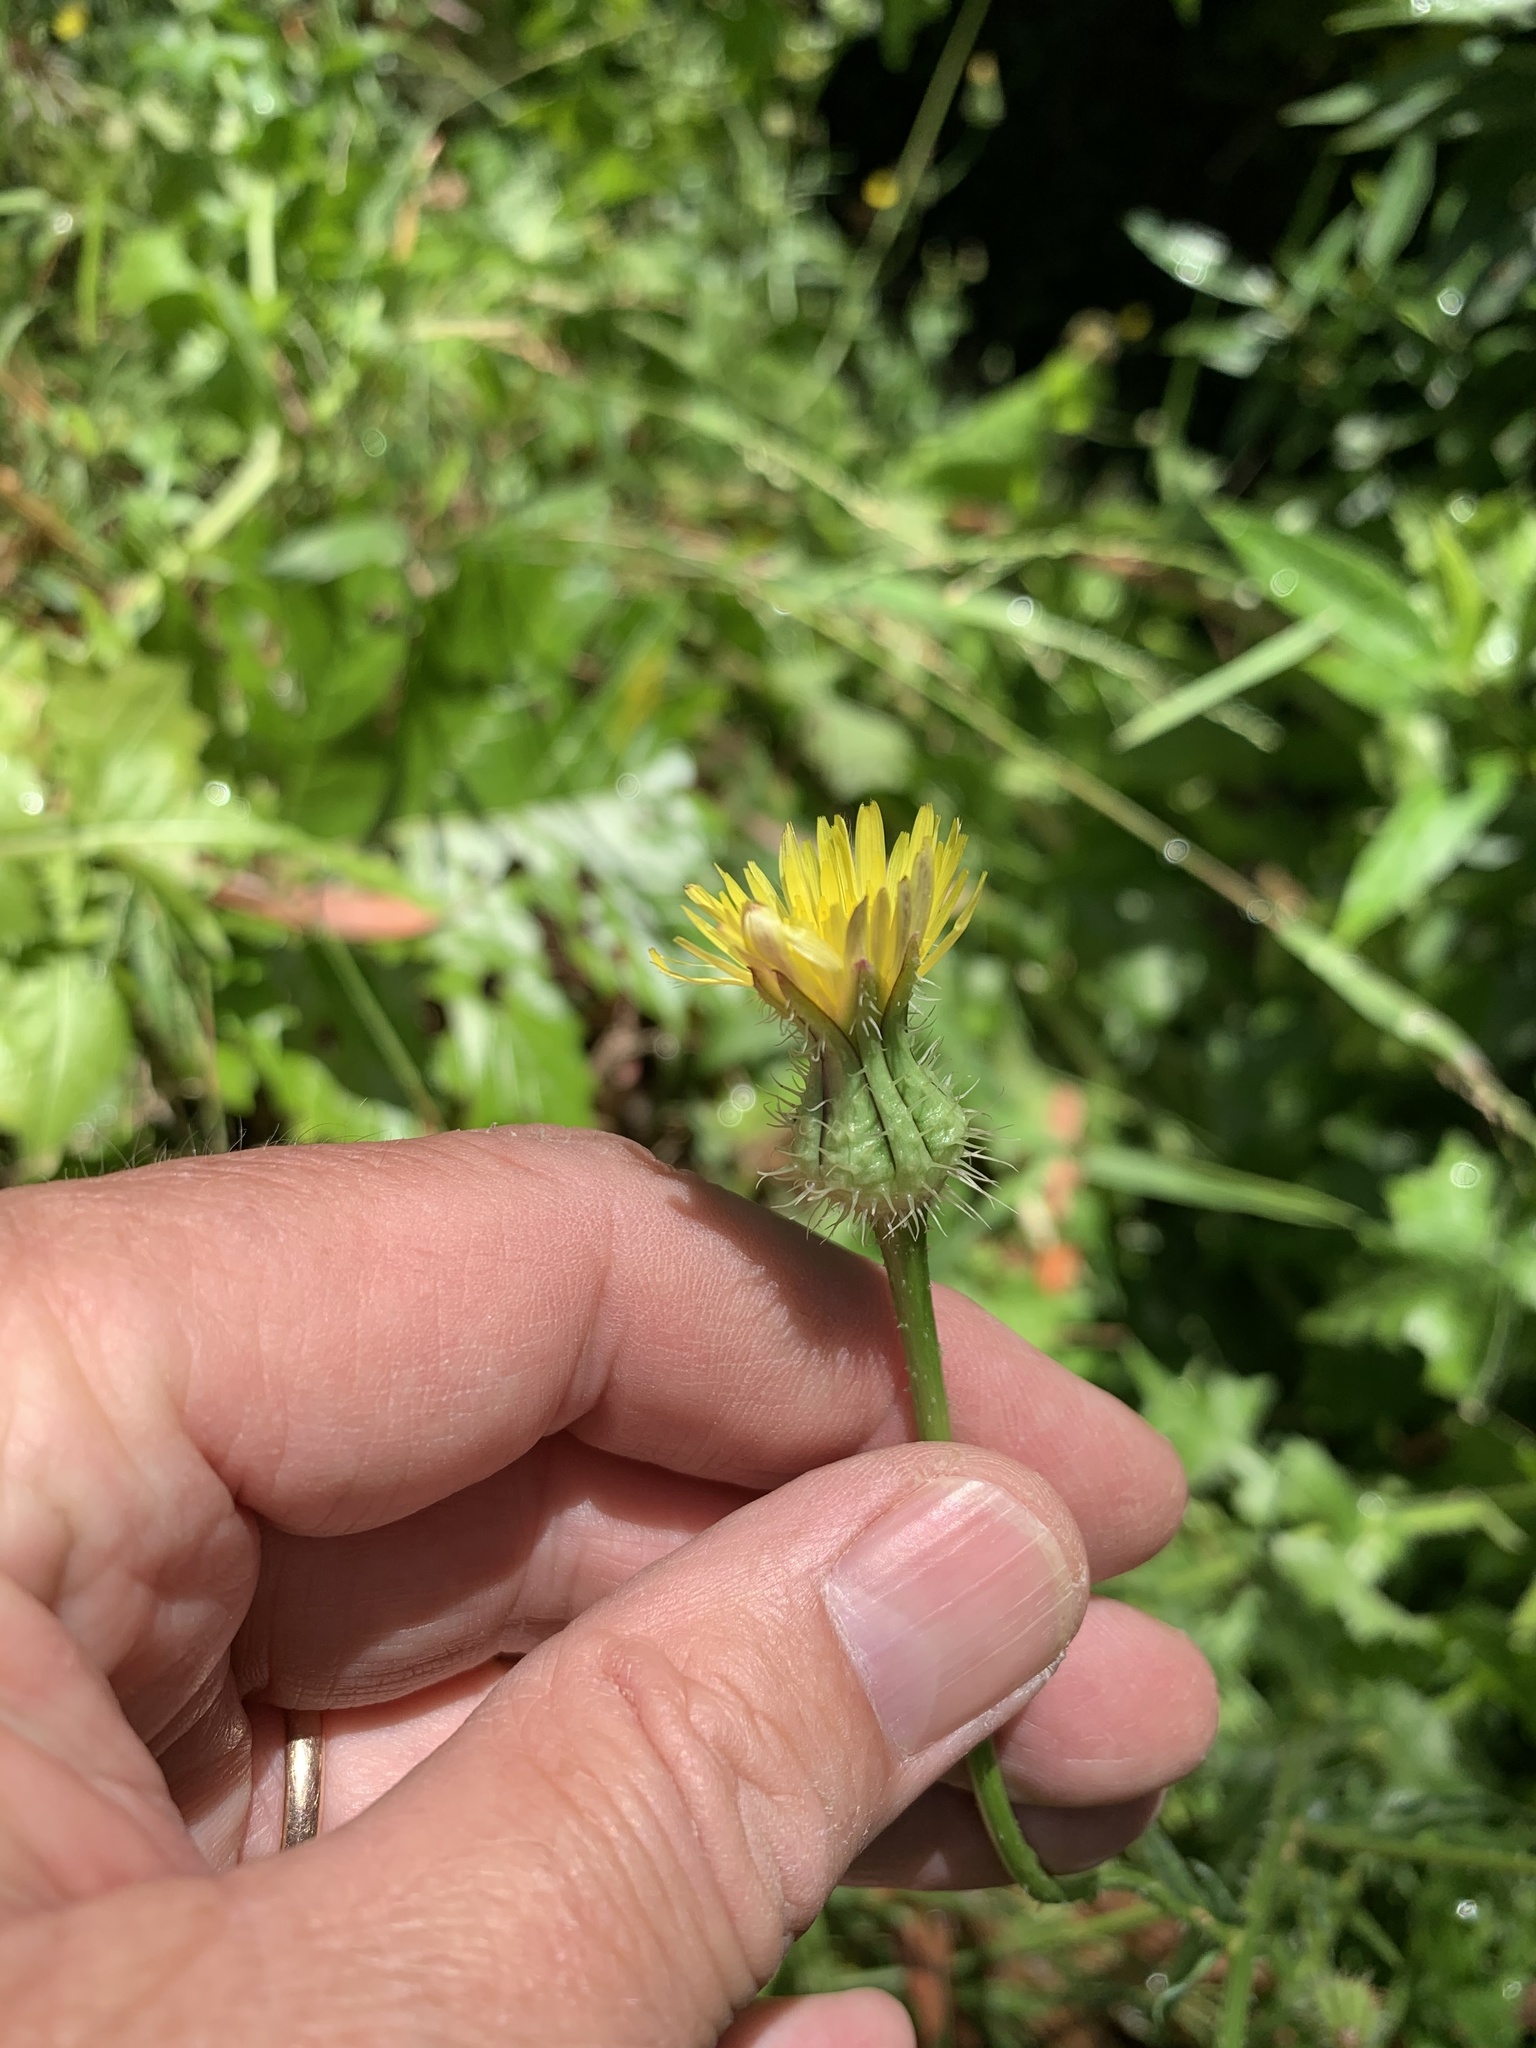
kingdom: Plantae
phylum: Tracheophyta
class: Magnoliopsida
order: Asterales
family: Asteraceae
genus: Urospermum
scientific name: Urospermum picroides
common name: False hawkbit
